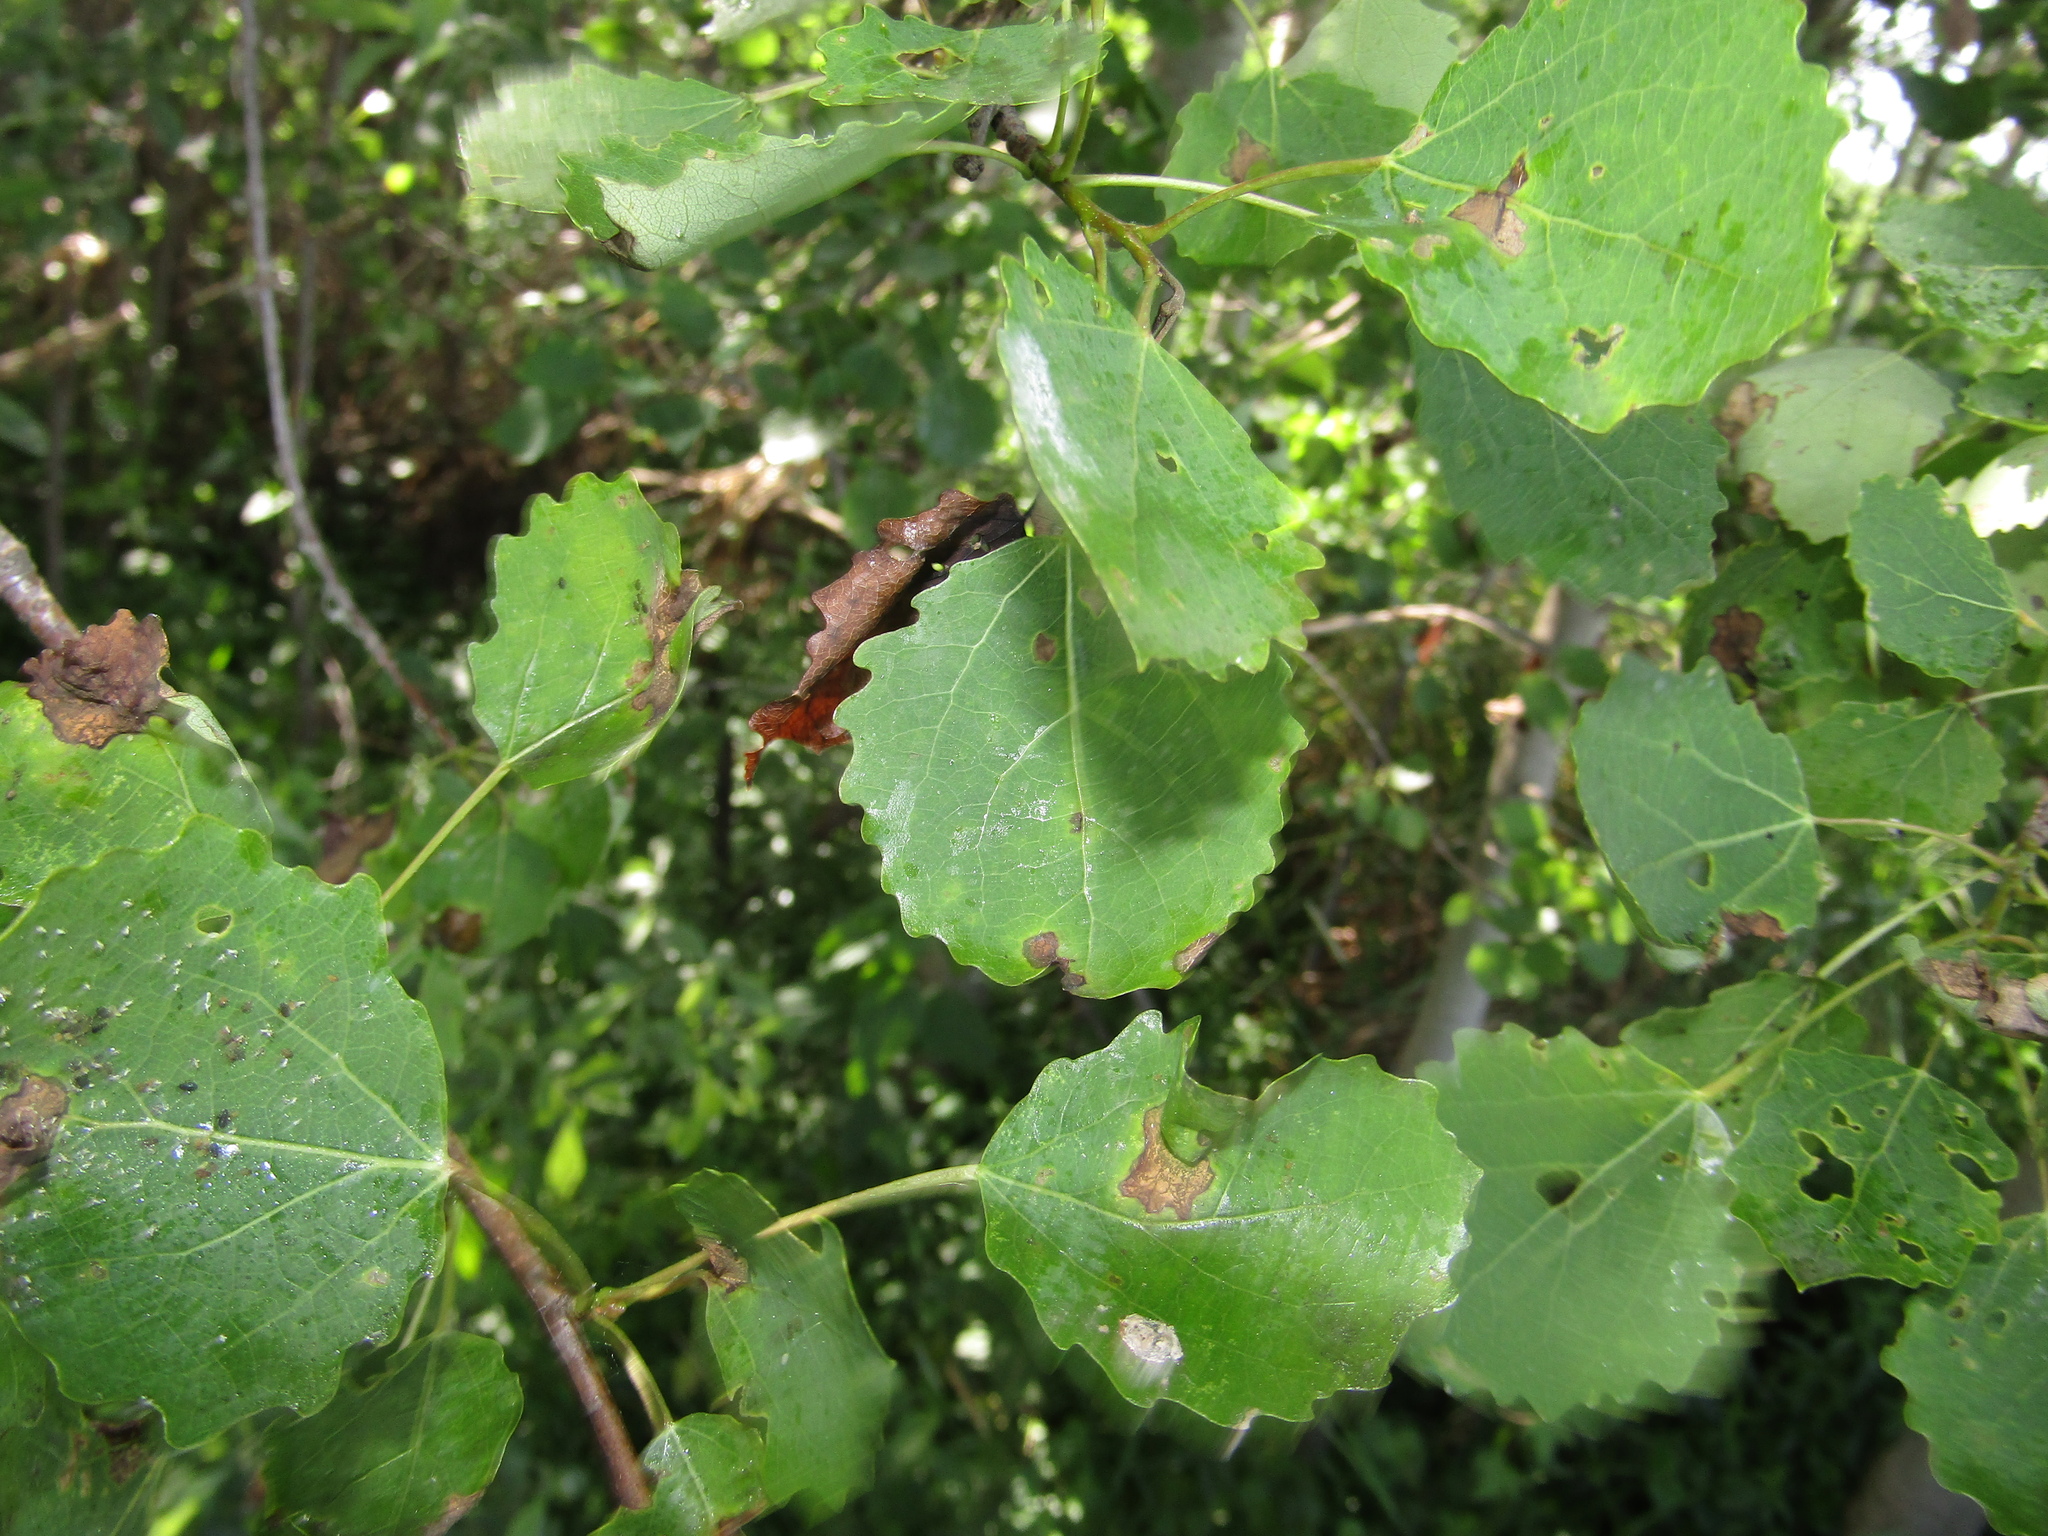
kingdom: Plantae
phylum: Tracheophyta
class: Magnoliopsida
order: Malpighiales
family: Salicaceae
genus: Populus
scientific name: Populus tremula
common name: European aspen
